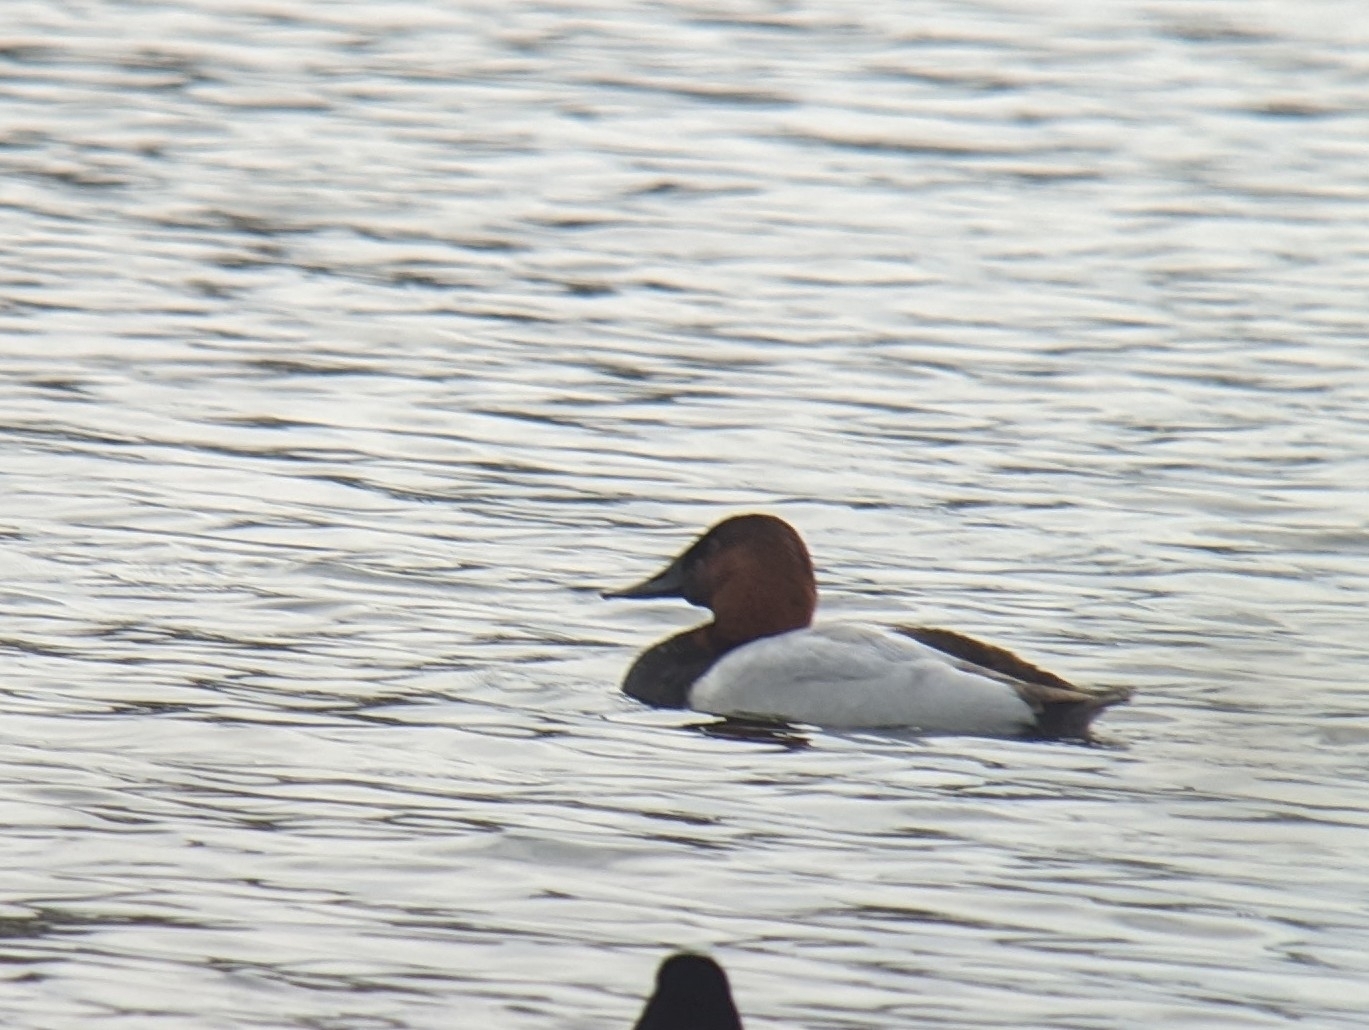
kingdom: Animalia
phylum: Chordata
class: Aves
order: Anseriformes
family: Anatidae
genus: Aythya
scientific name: Aythya valisineria
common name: Canvasback
